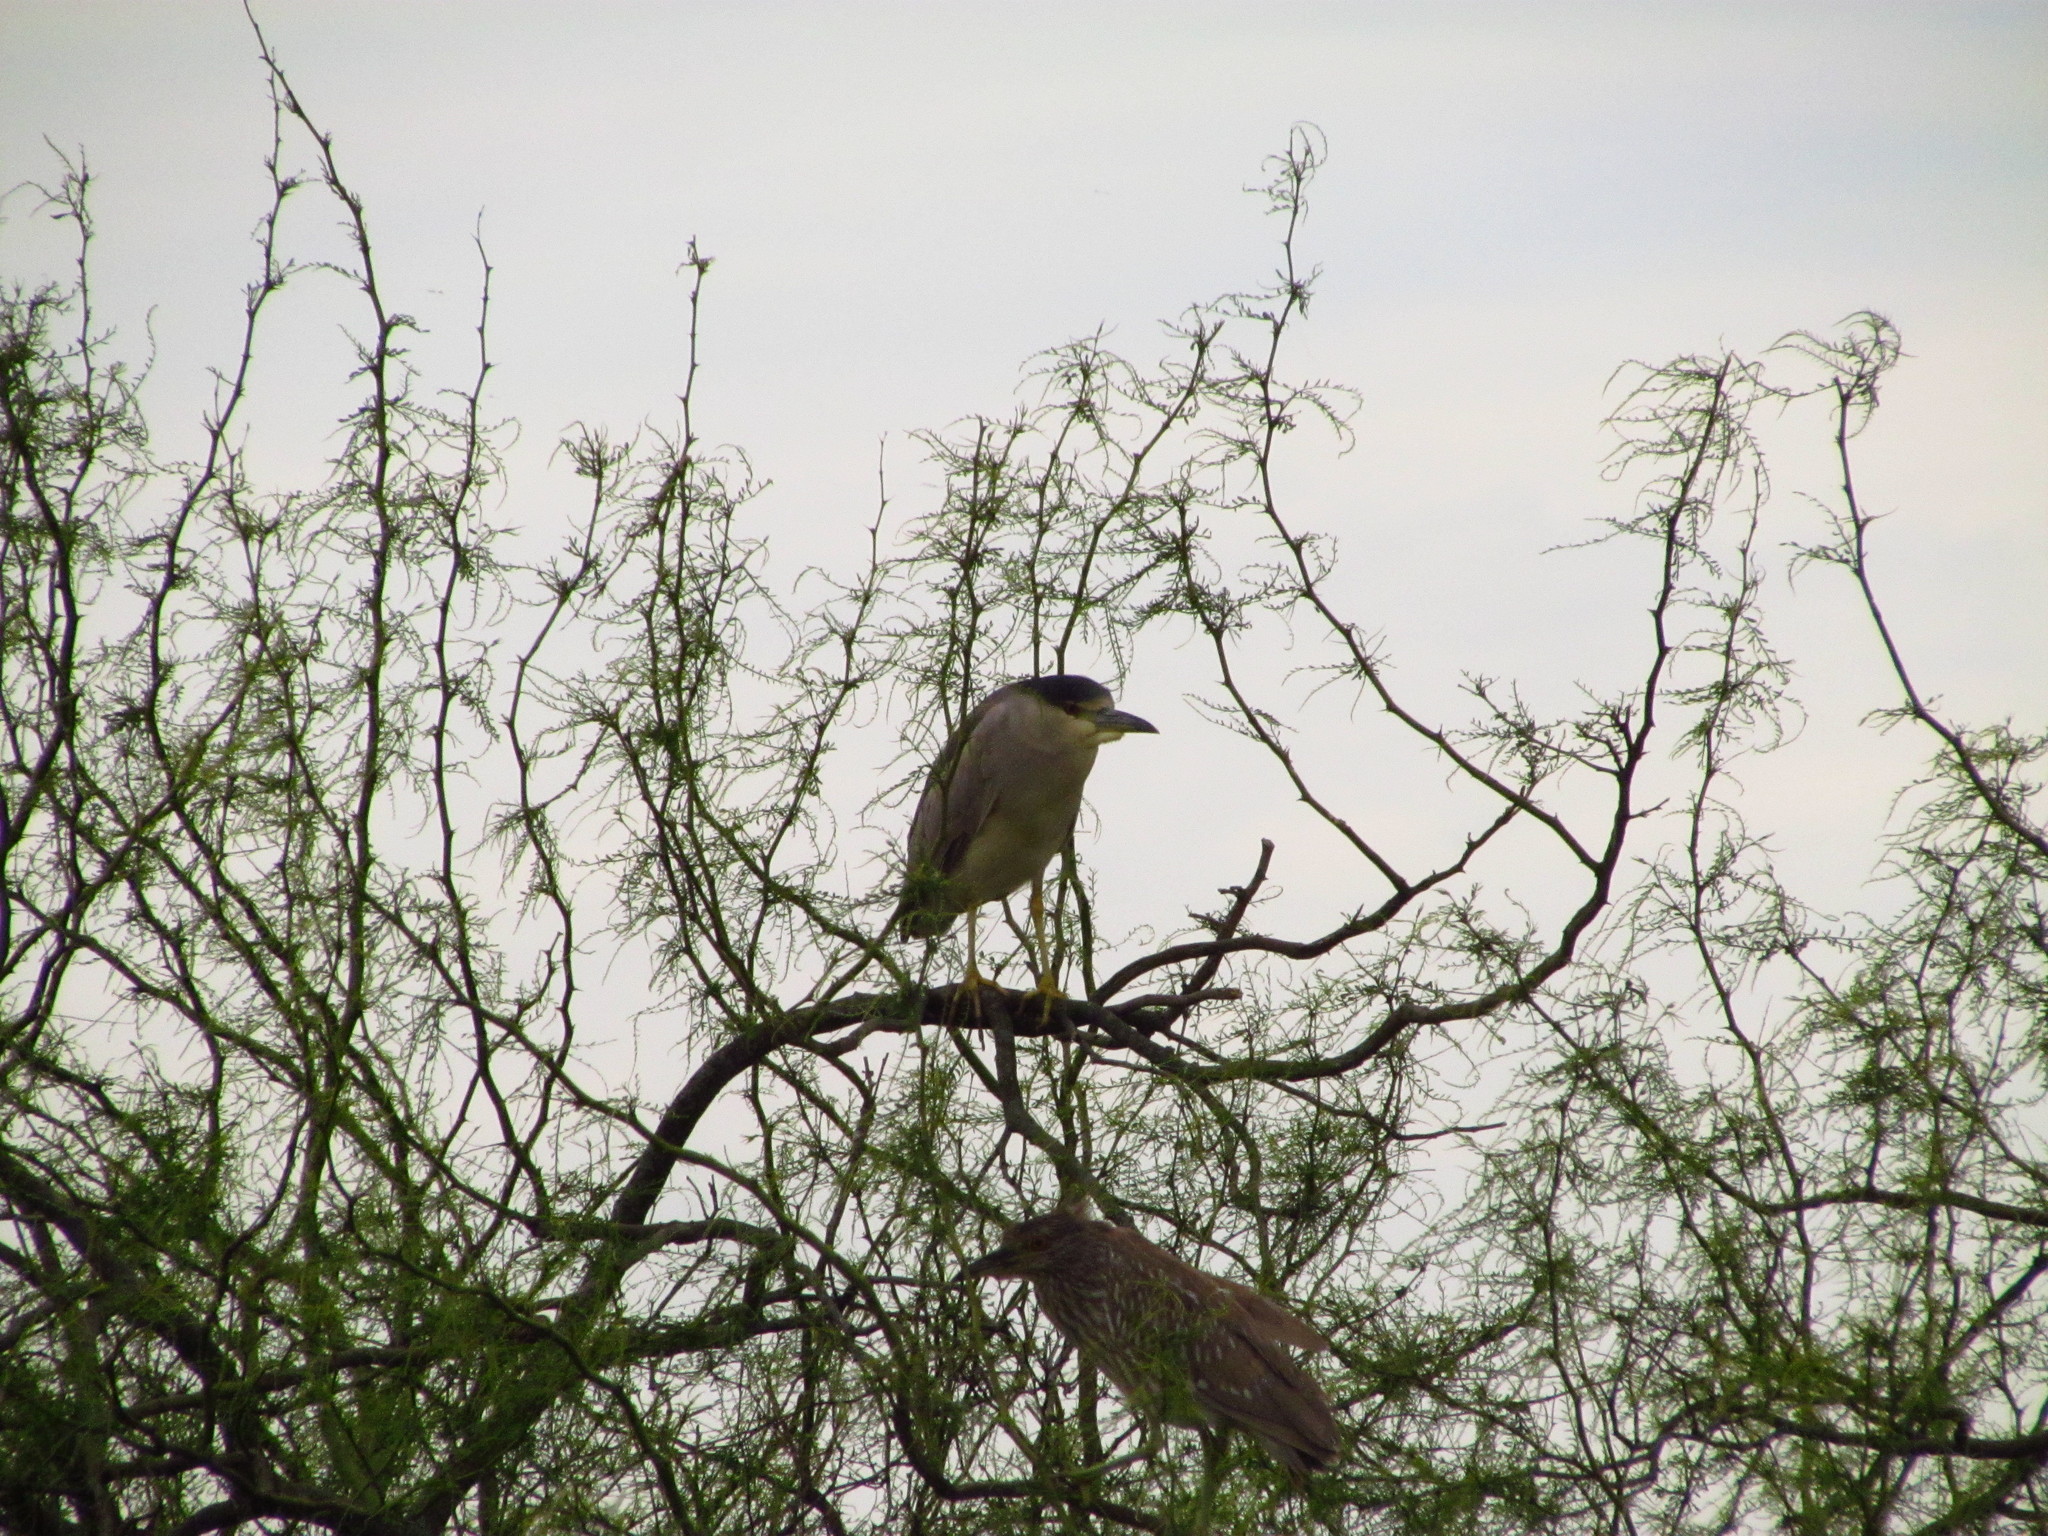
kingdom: Animalia
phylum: Chordata
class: Aves
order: Pelecaniformes
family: Ardeidae
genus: Nycticorax
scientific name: Nycticorax nycticorax
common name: Black-crowned night heron
